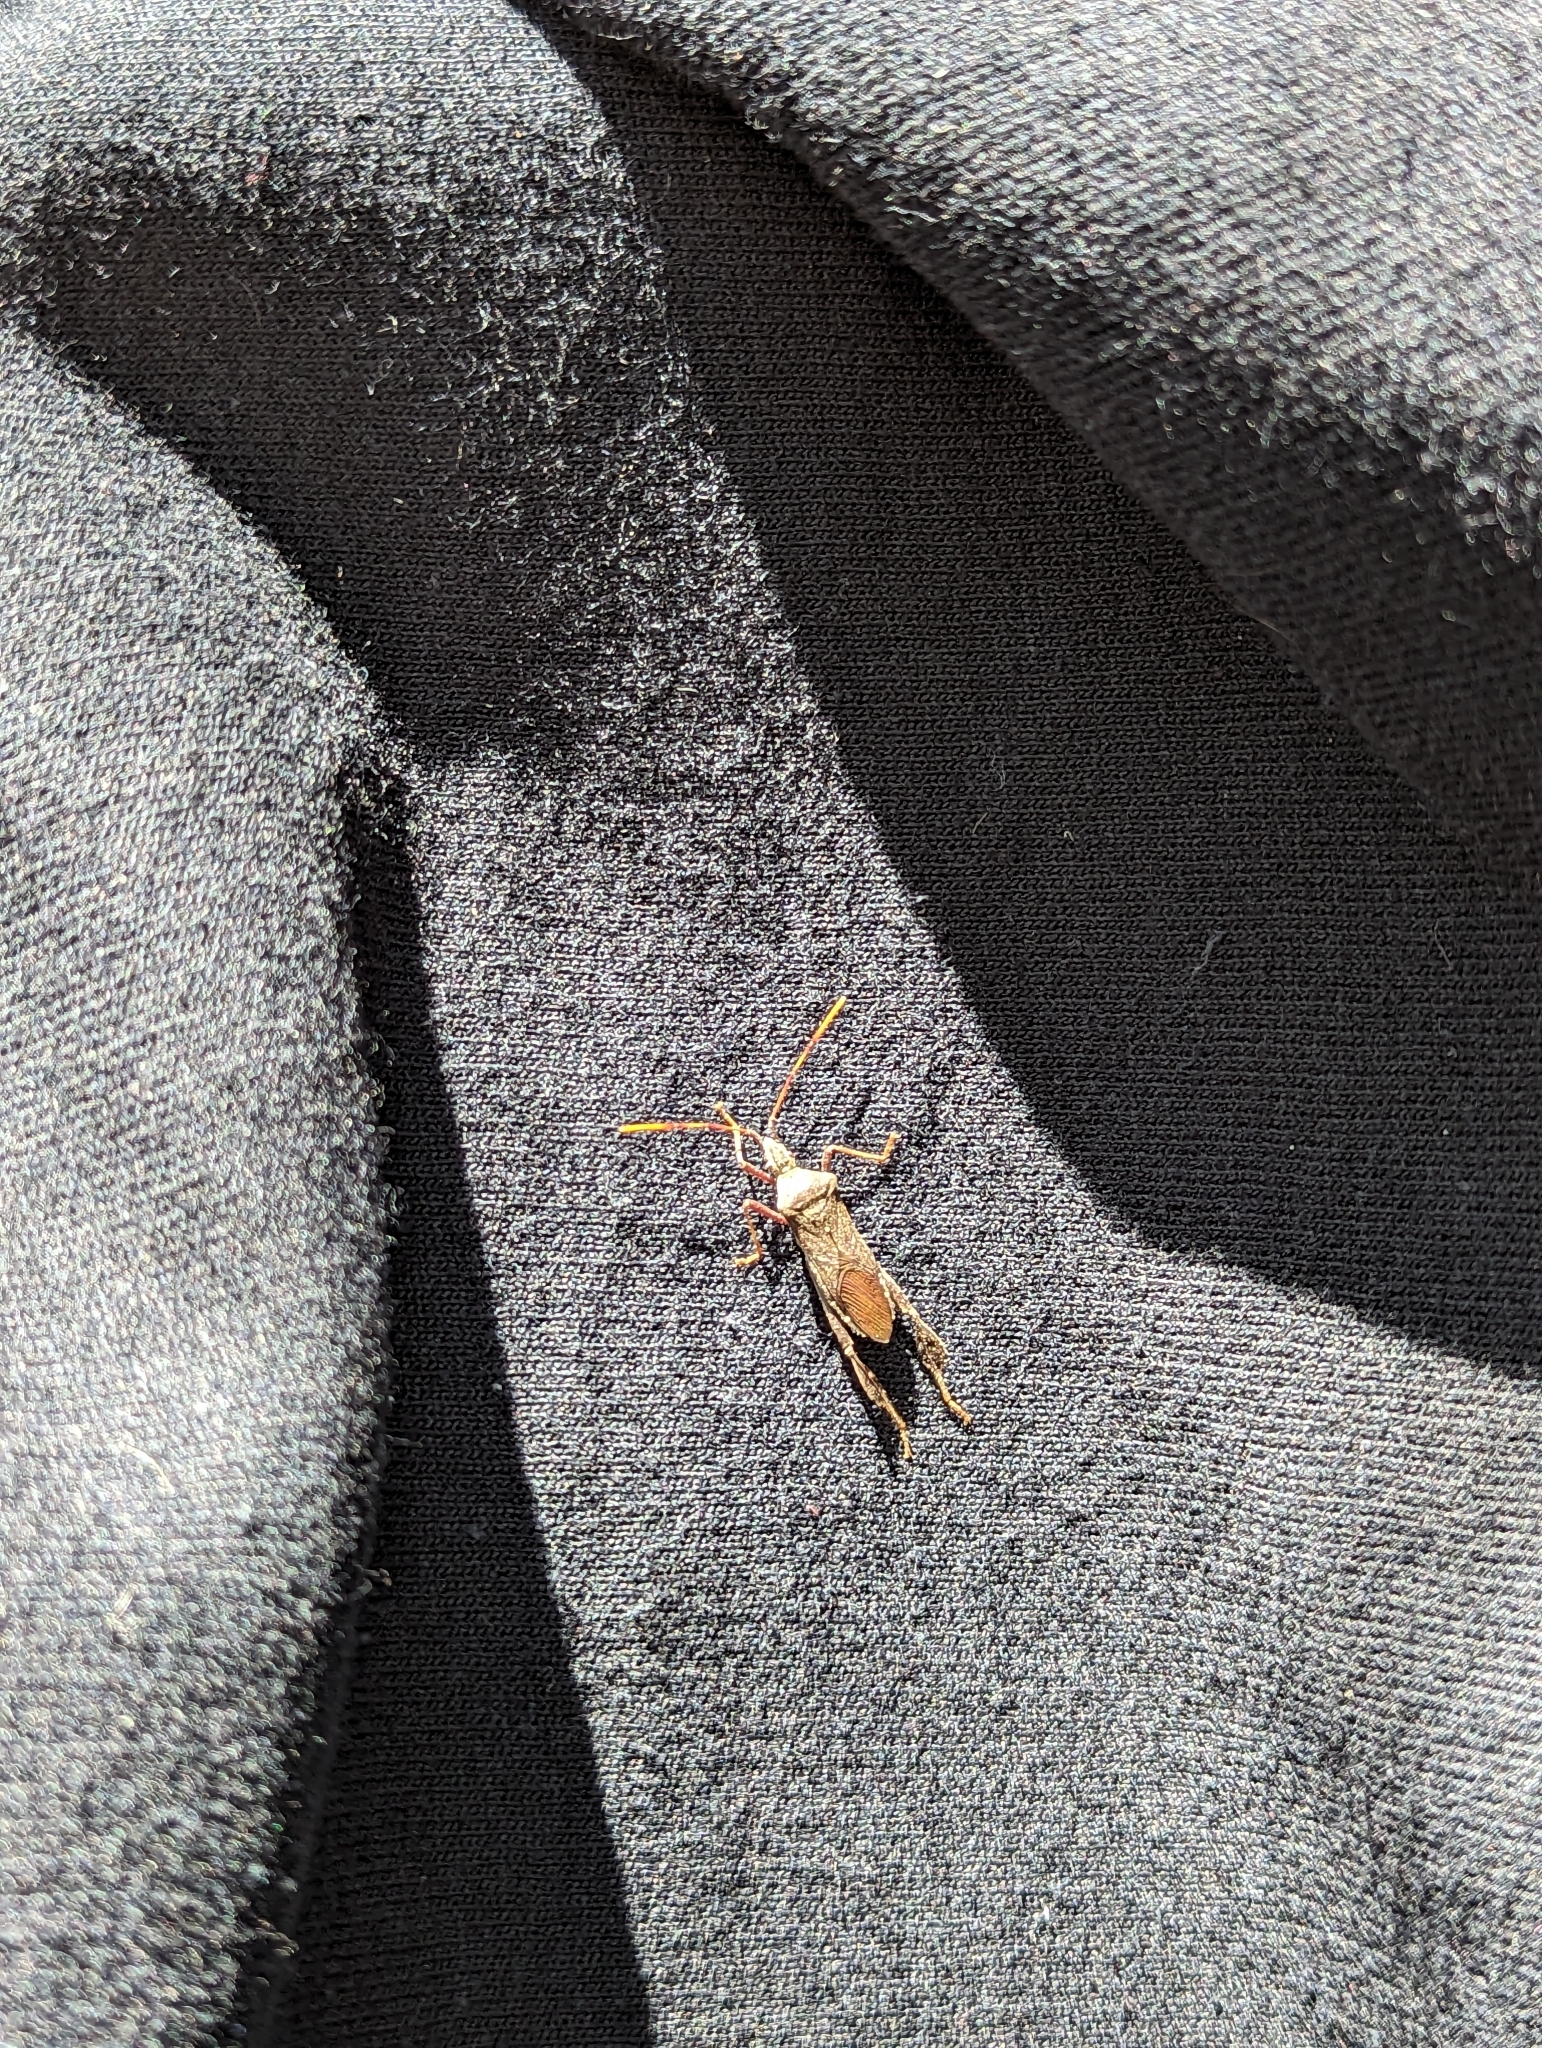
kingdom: Animalia
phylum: Arthropoda
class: Insecta
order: Hemiptera
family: Coreidae
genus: Leptoglossus
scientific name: Leptoglossus oppositus
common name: Northern leaf-footed bug
